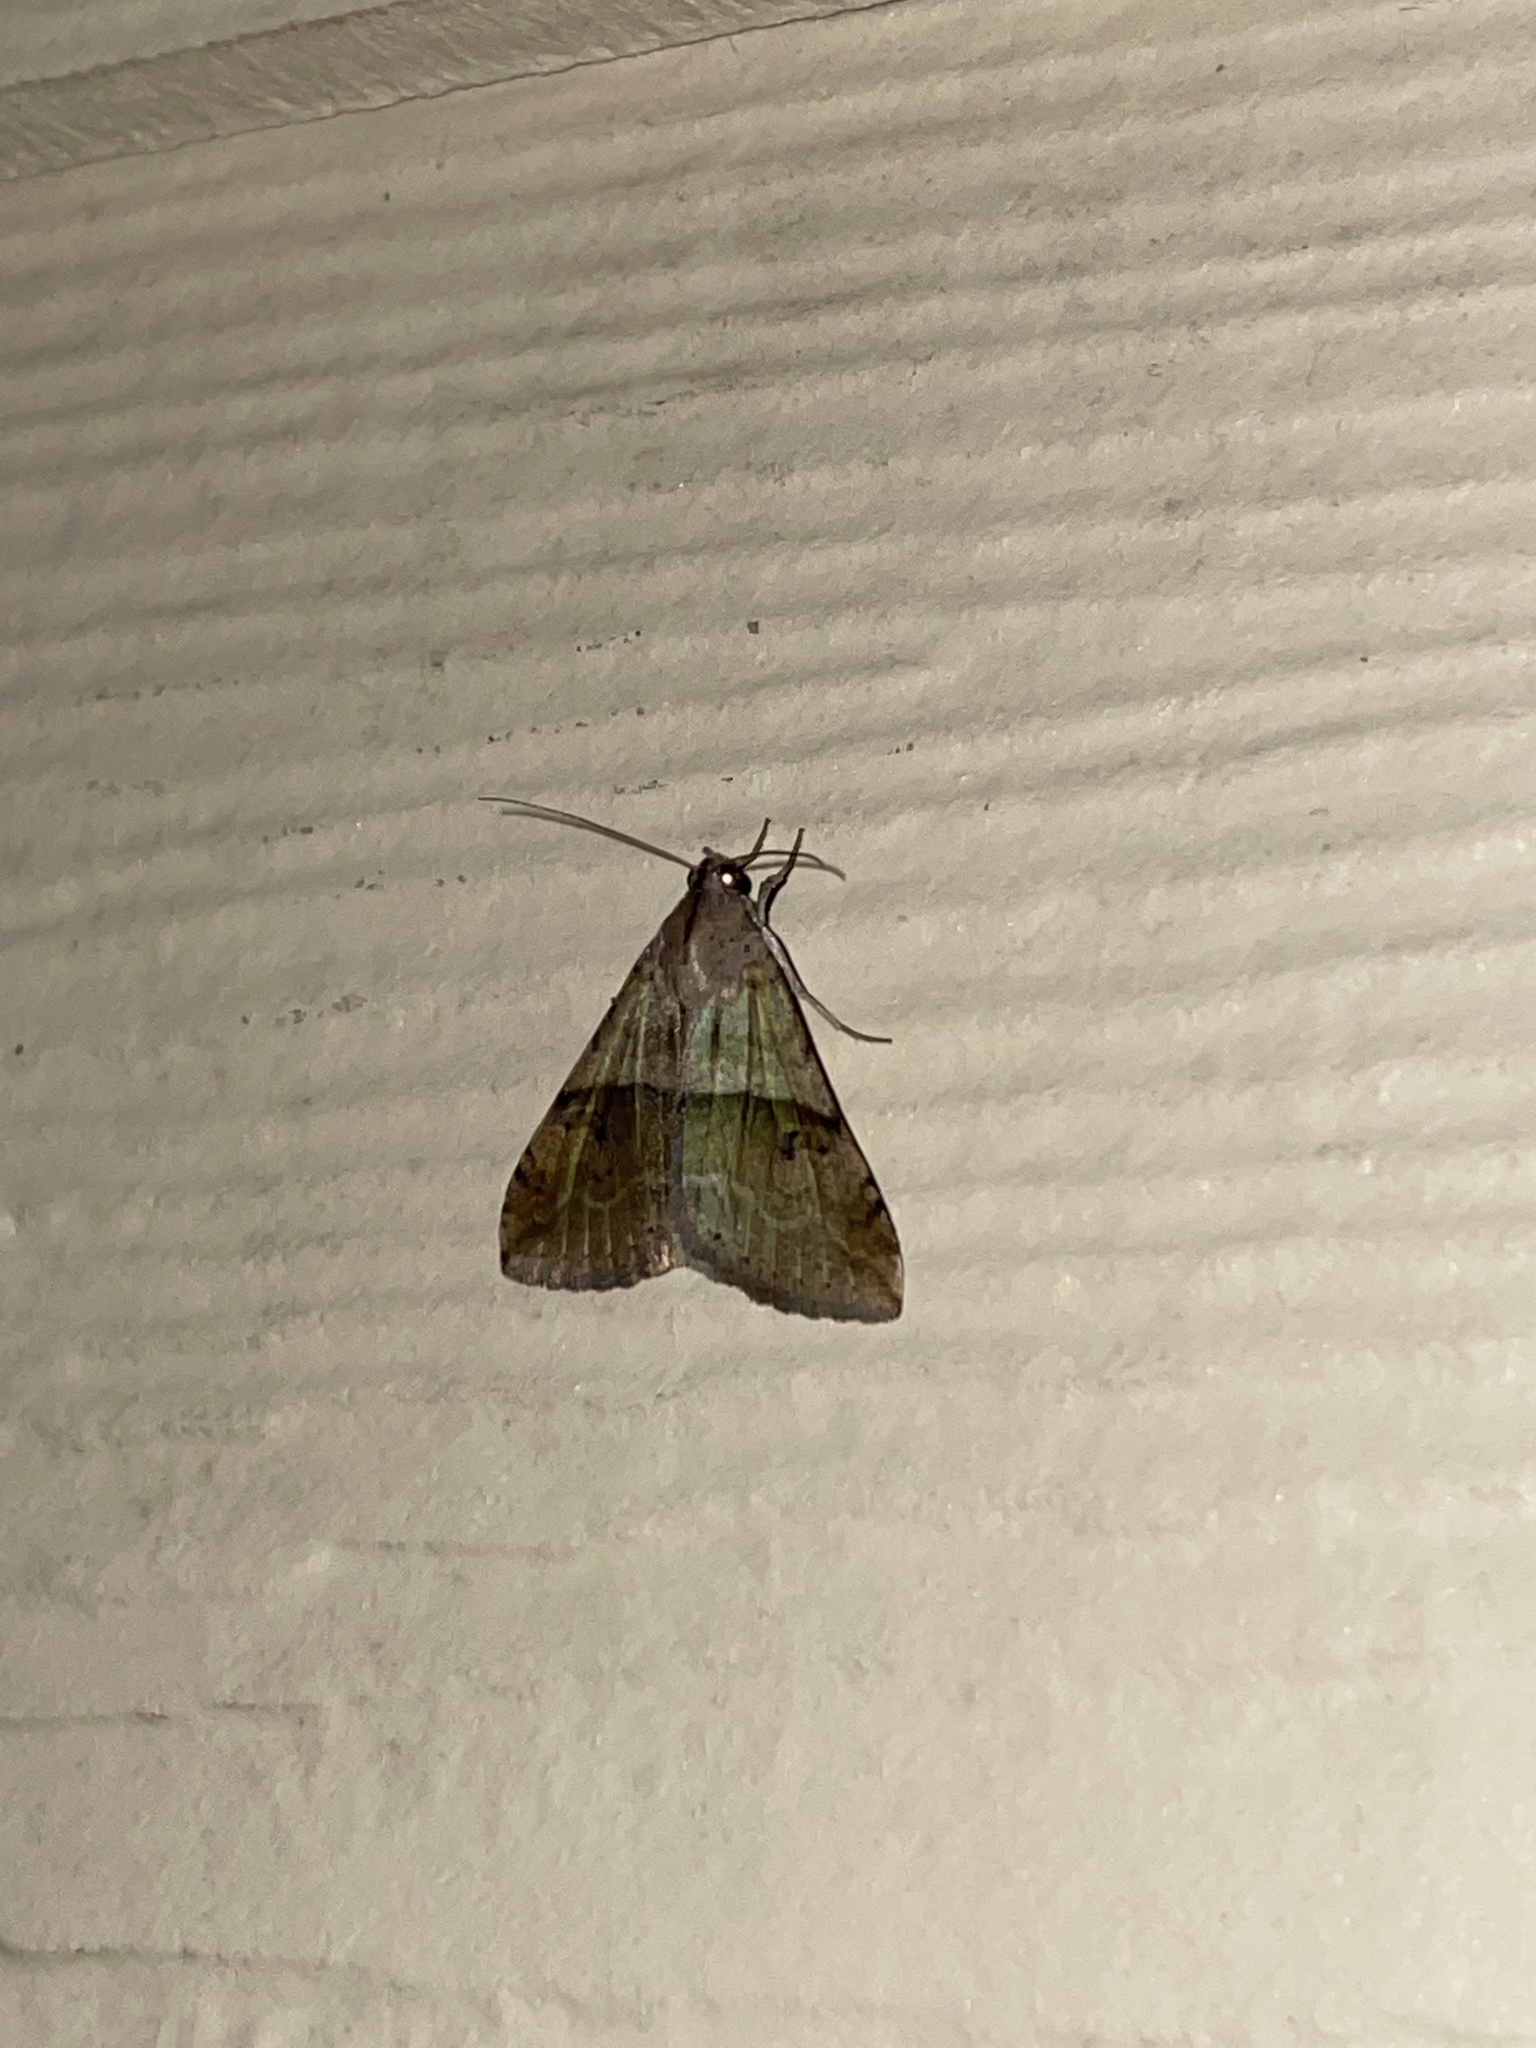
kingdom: Animalia
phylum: Arthropoda
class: Insecta
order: Lepidoptera
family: Erebidae
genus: Melipotis
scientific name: Melipotis cellaris
